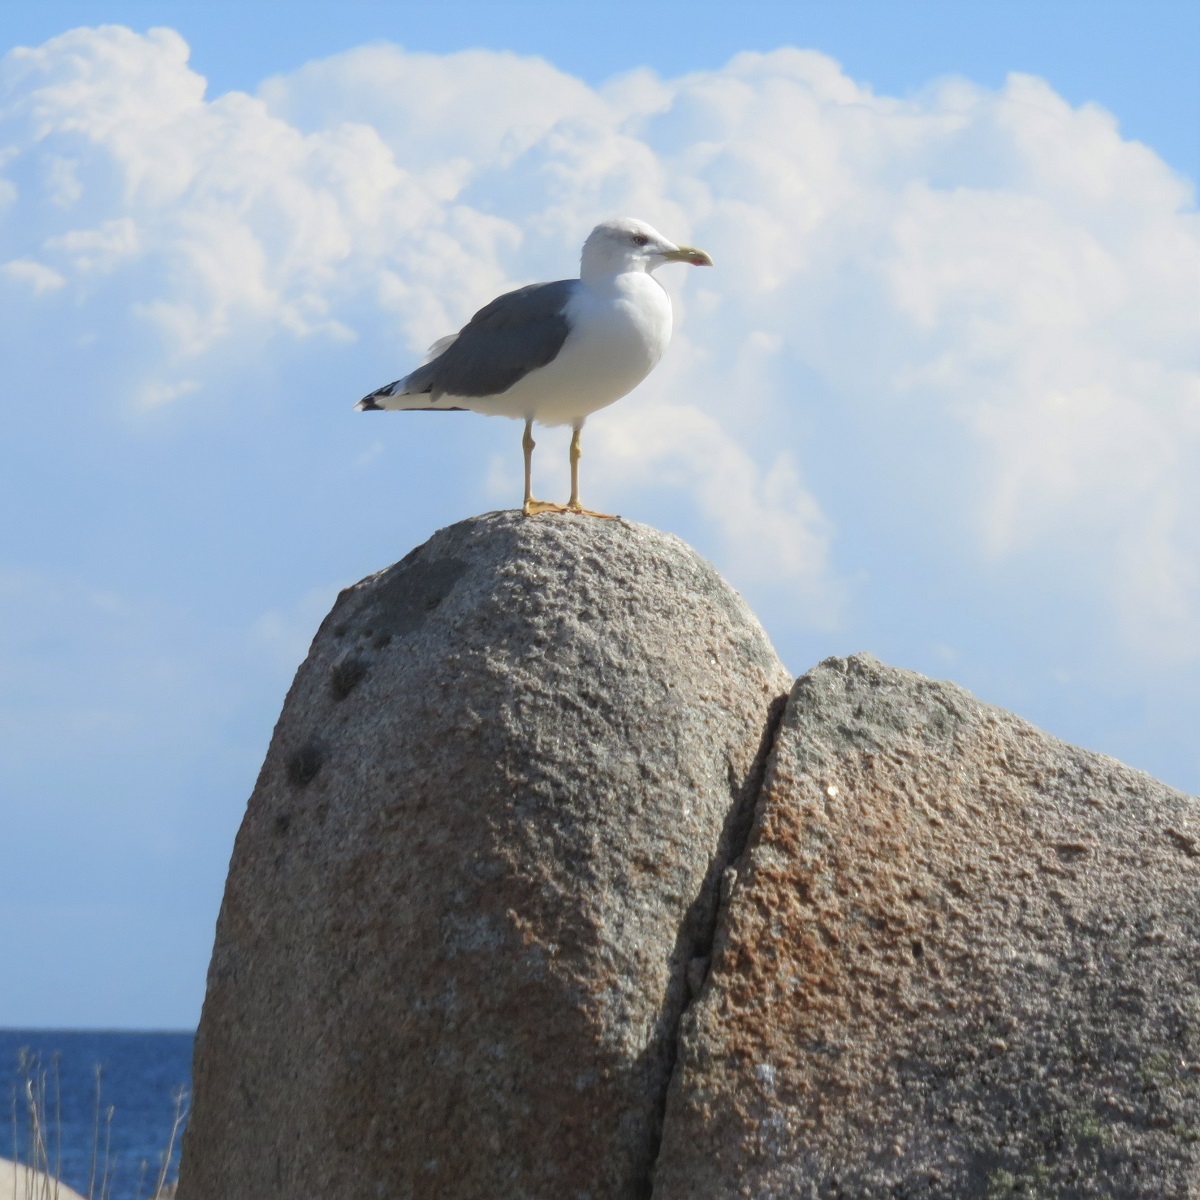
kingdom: Animalia
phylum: Chordata
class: Aves
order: Charadriiformes
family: Laridae
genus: Larus
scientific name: Larus michahellis
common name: Yellow-legged gull
